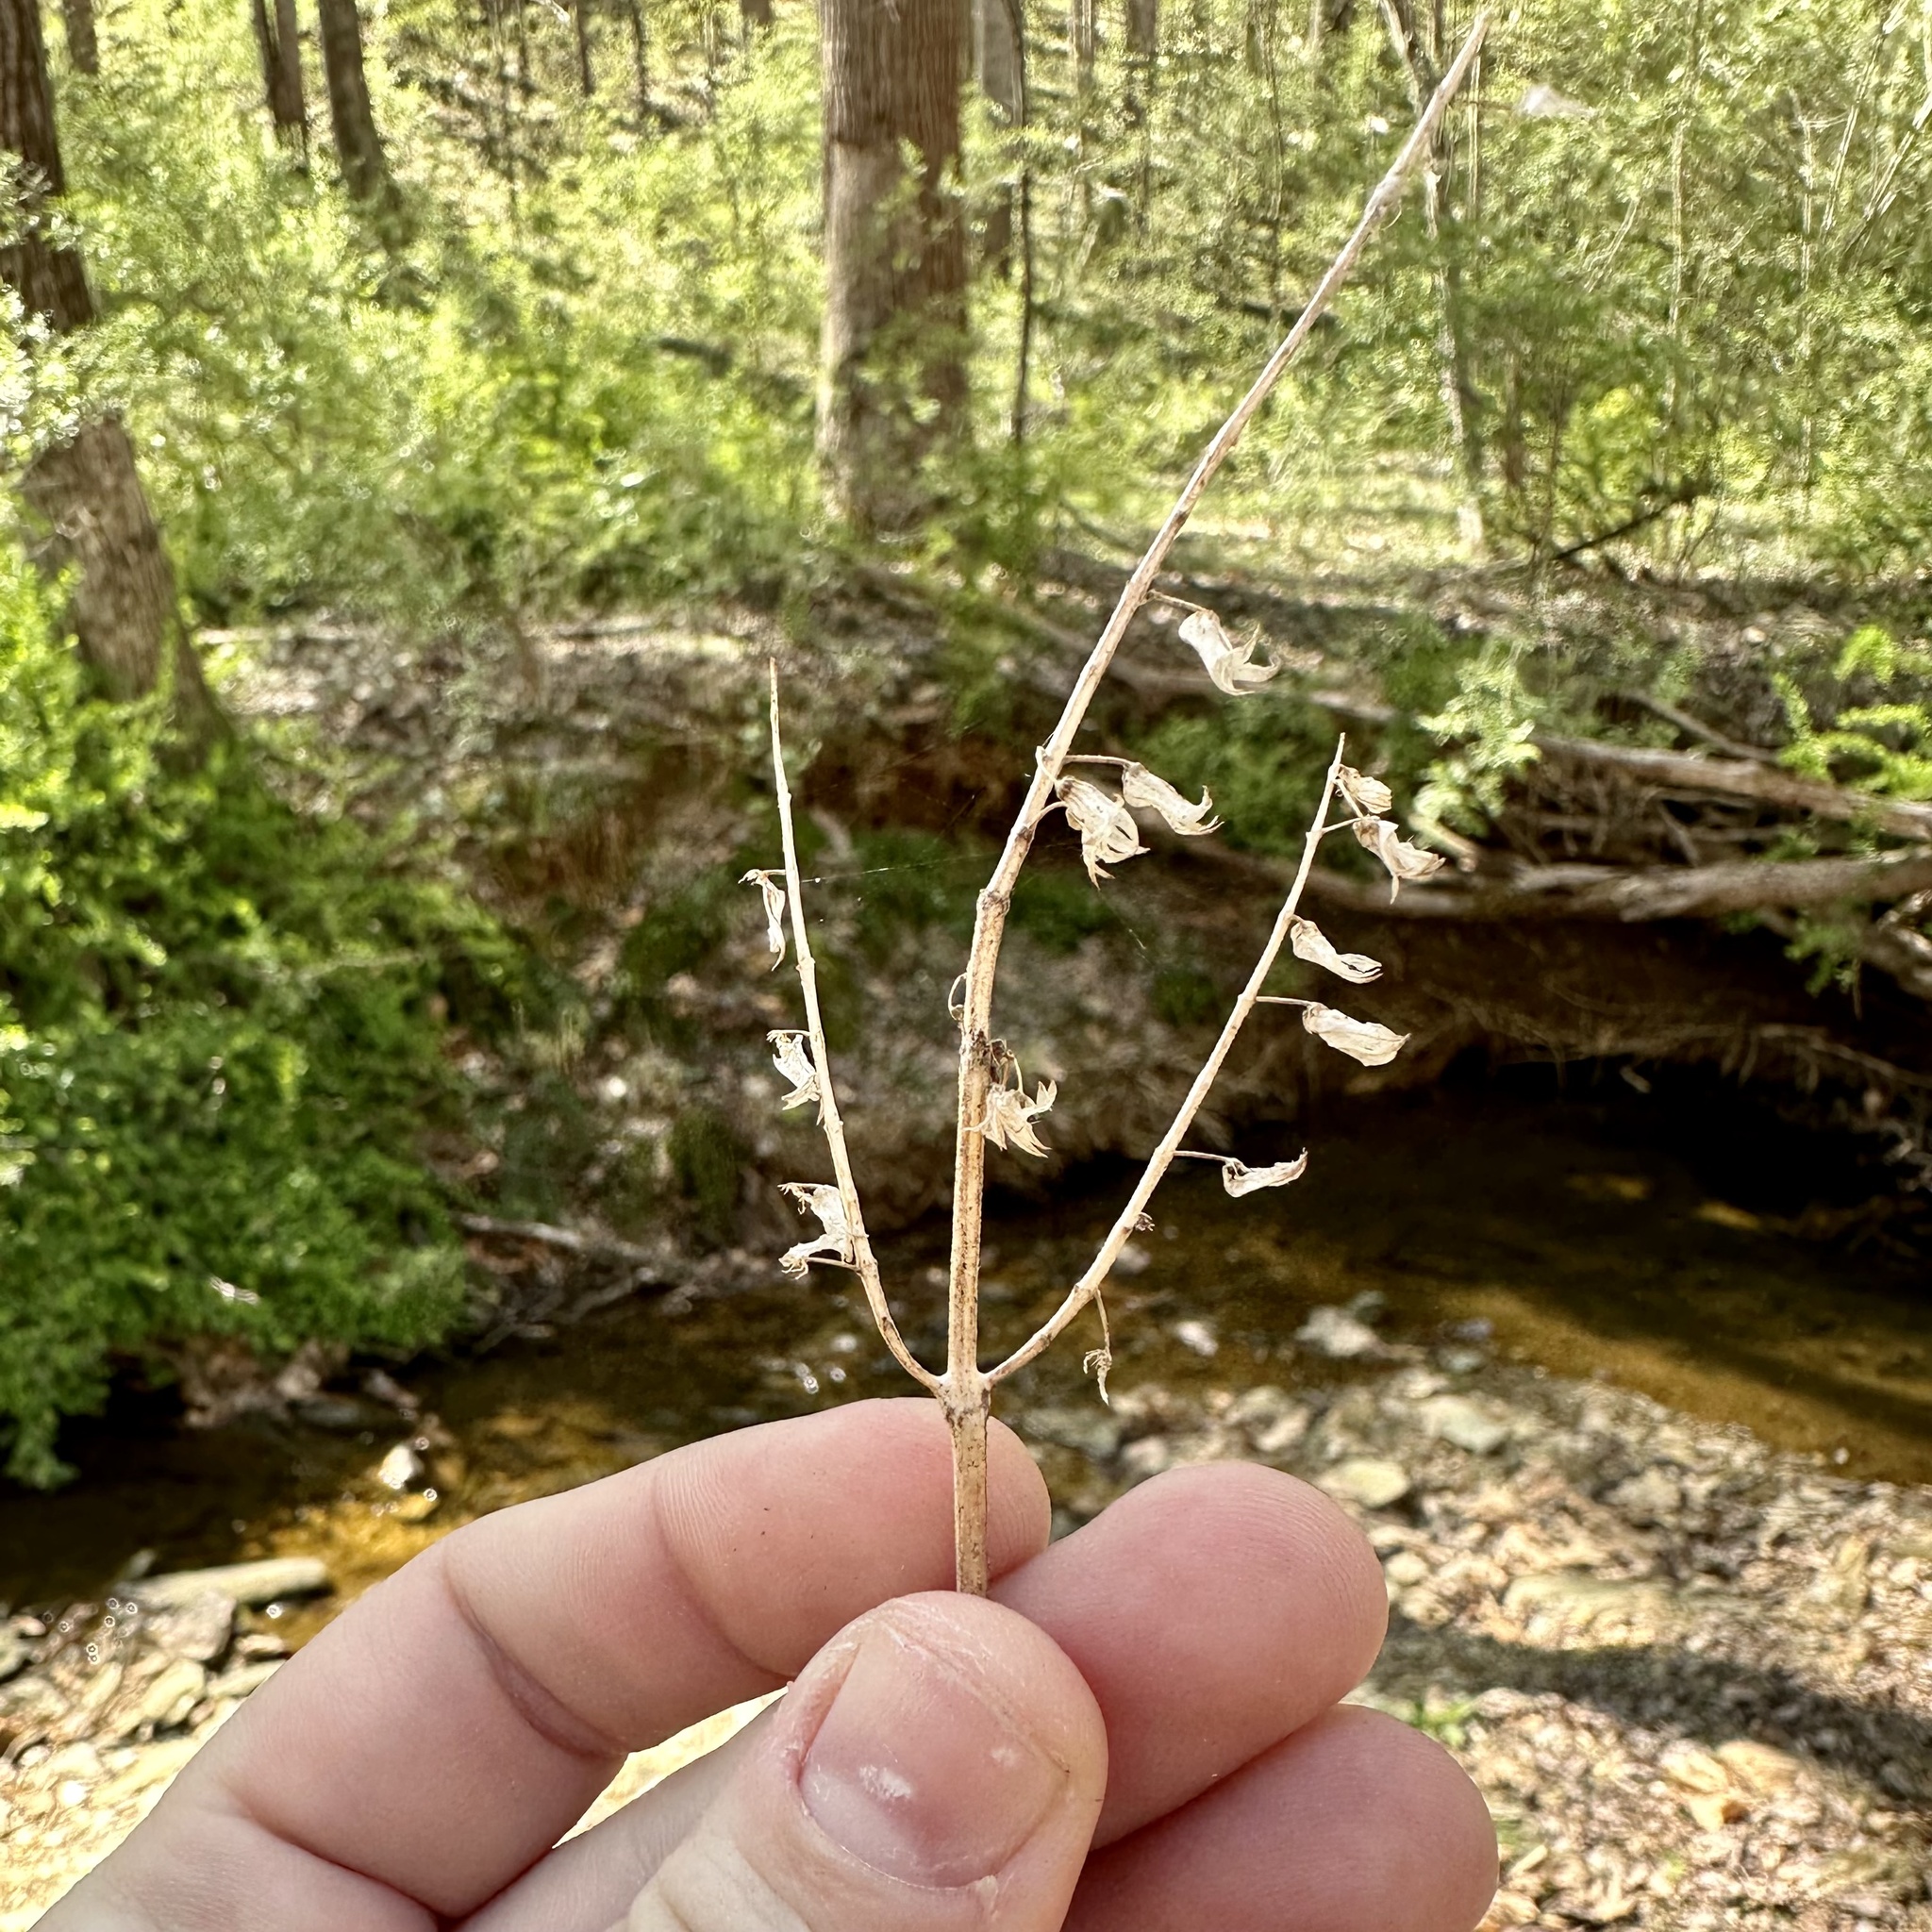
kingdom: Plantae
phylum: Tracheophyta
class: Magnoliopsida
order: Lamiales
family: Lamiaceae
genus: Perilla
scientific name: Perilla frutescens
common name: Perilla
